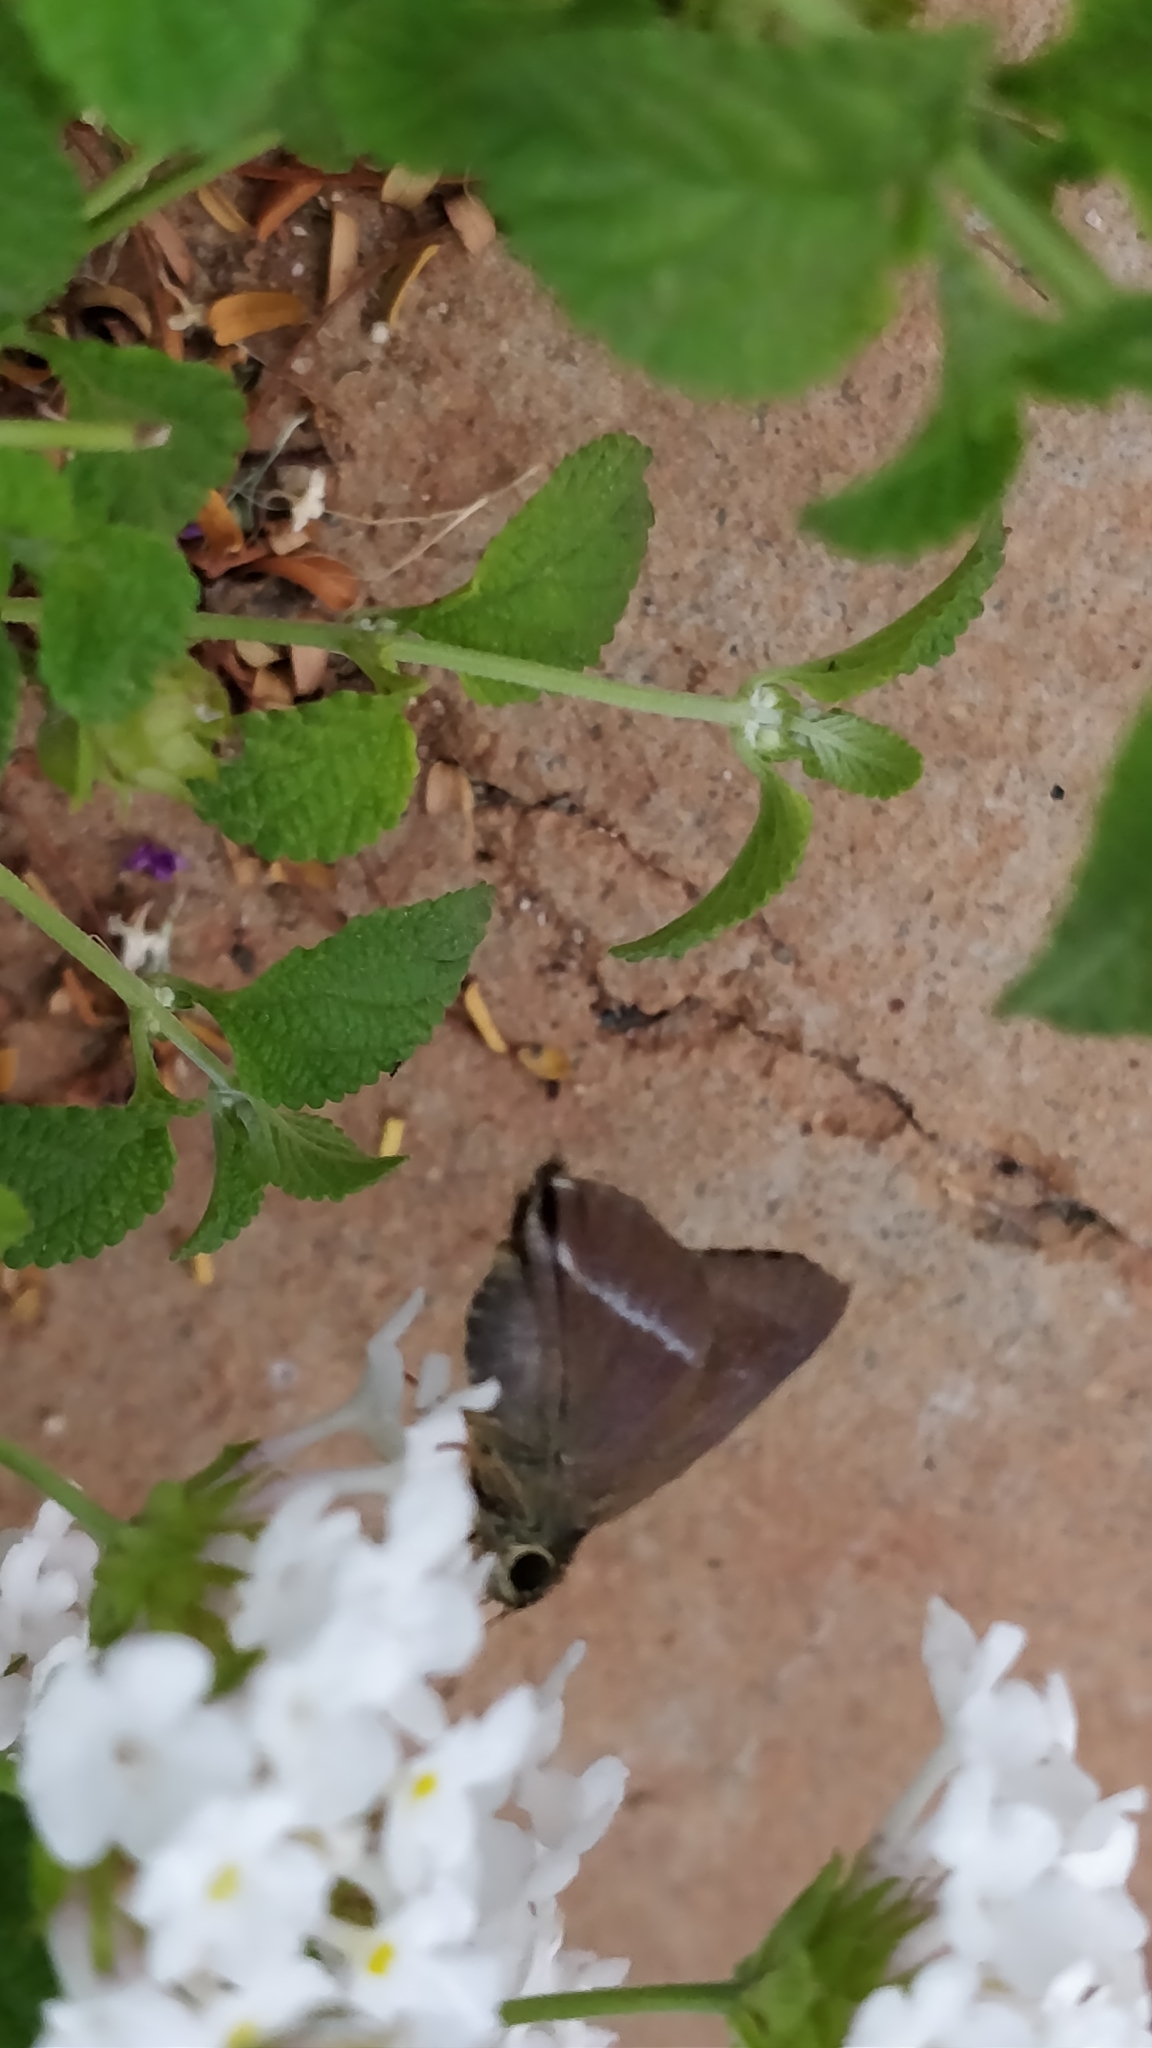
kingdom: Animalia
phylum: Arthropoda
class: Insecta
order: Lepidoptera
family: Hesperiidae
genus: Hasora
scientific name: Hasora chromus
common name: Common banded awl
